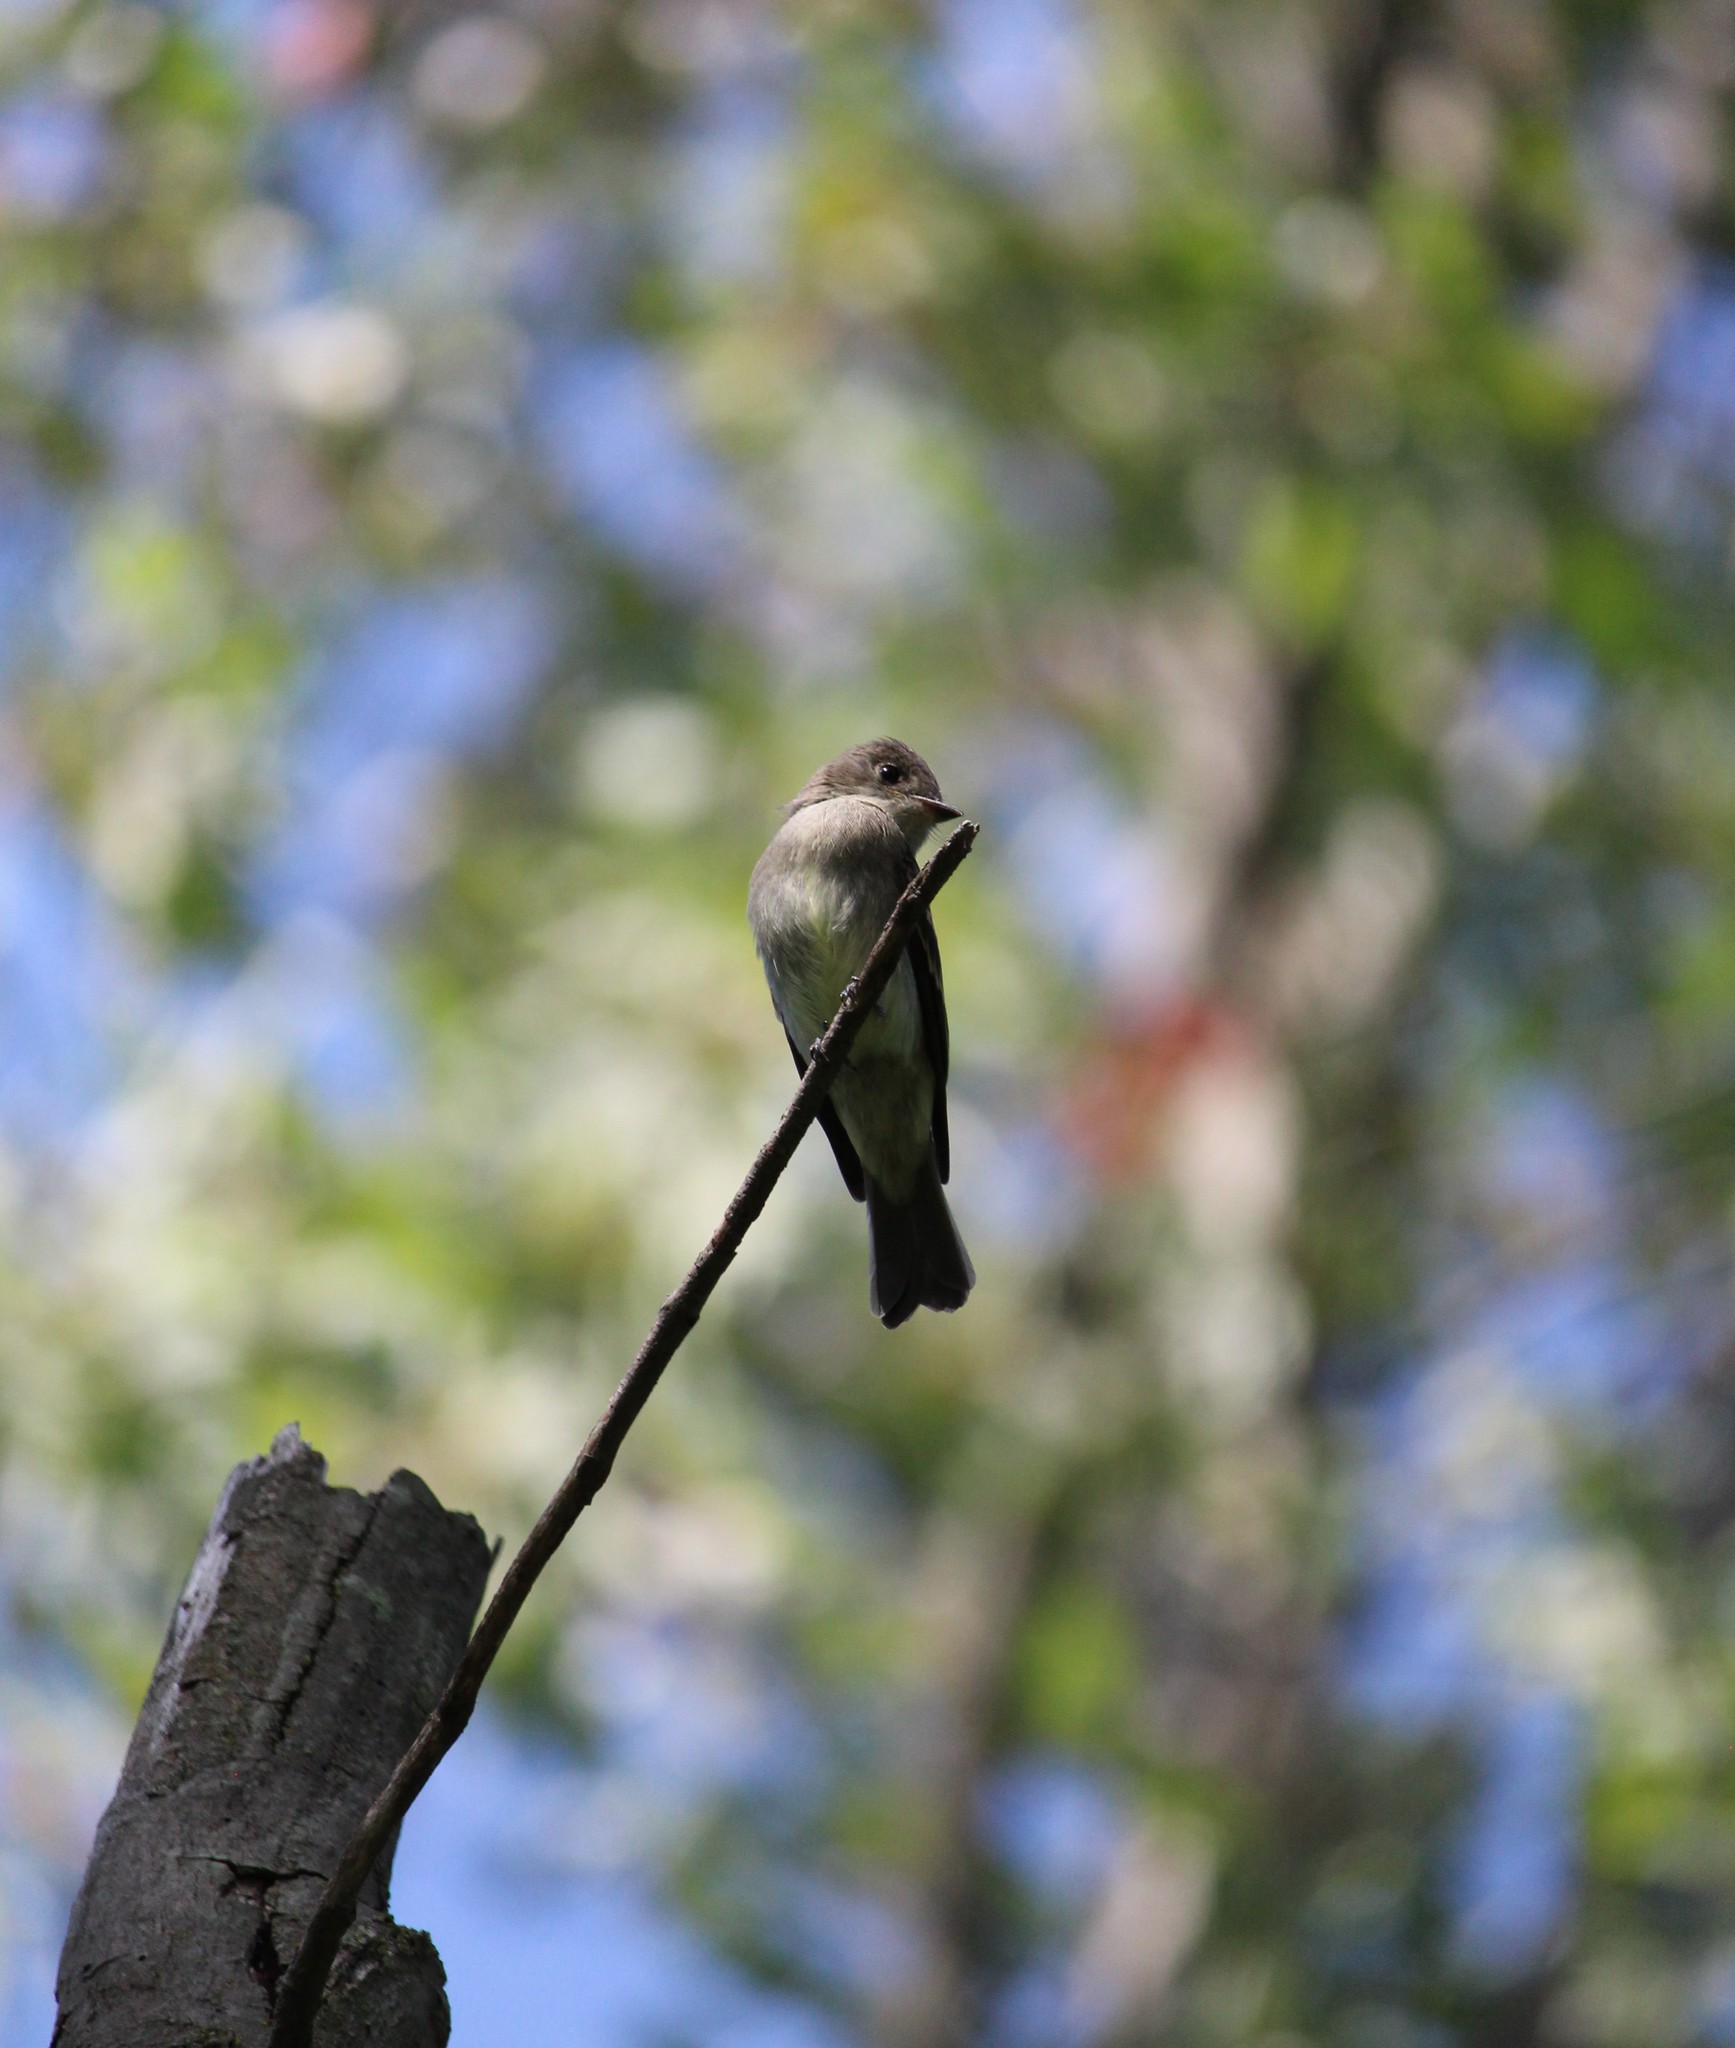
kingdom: Animalia
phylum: Chordata
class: Aves
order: Passeriformes
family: Tyrannidae
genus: Contopus
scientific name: Contopus virens
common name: Eastern wood-pewee
